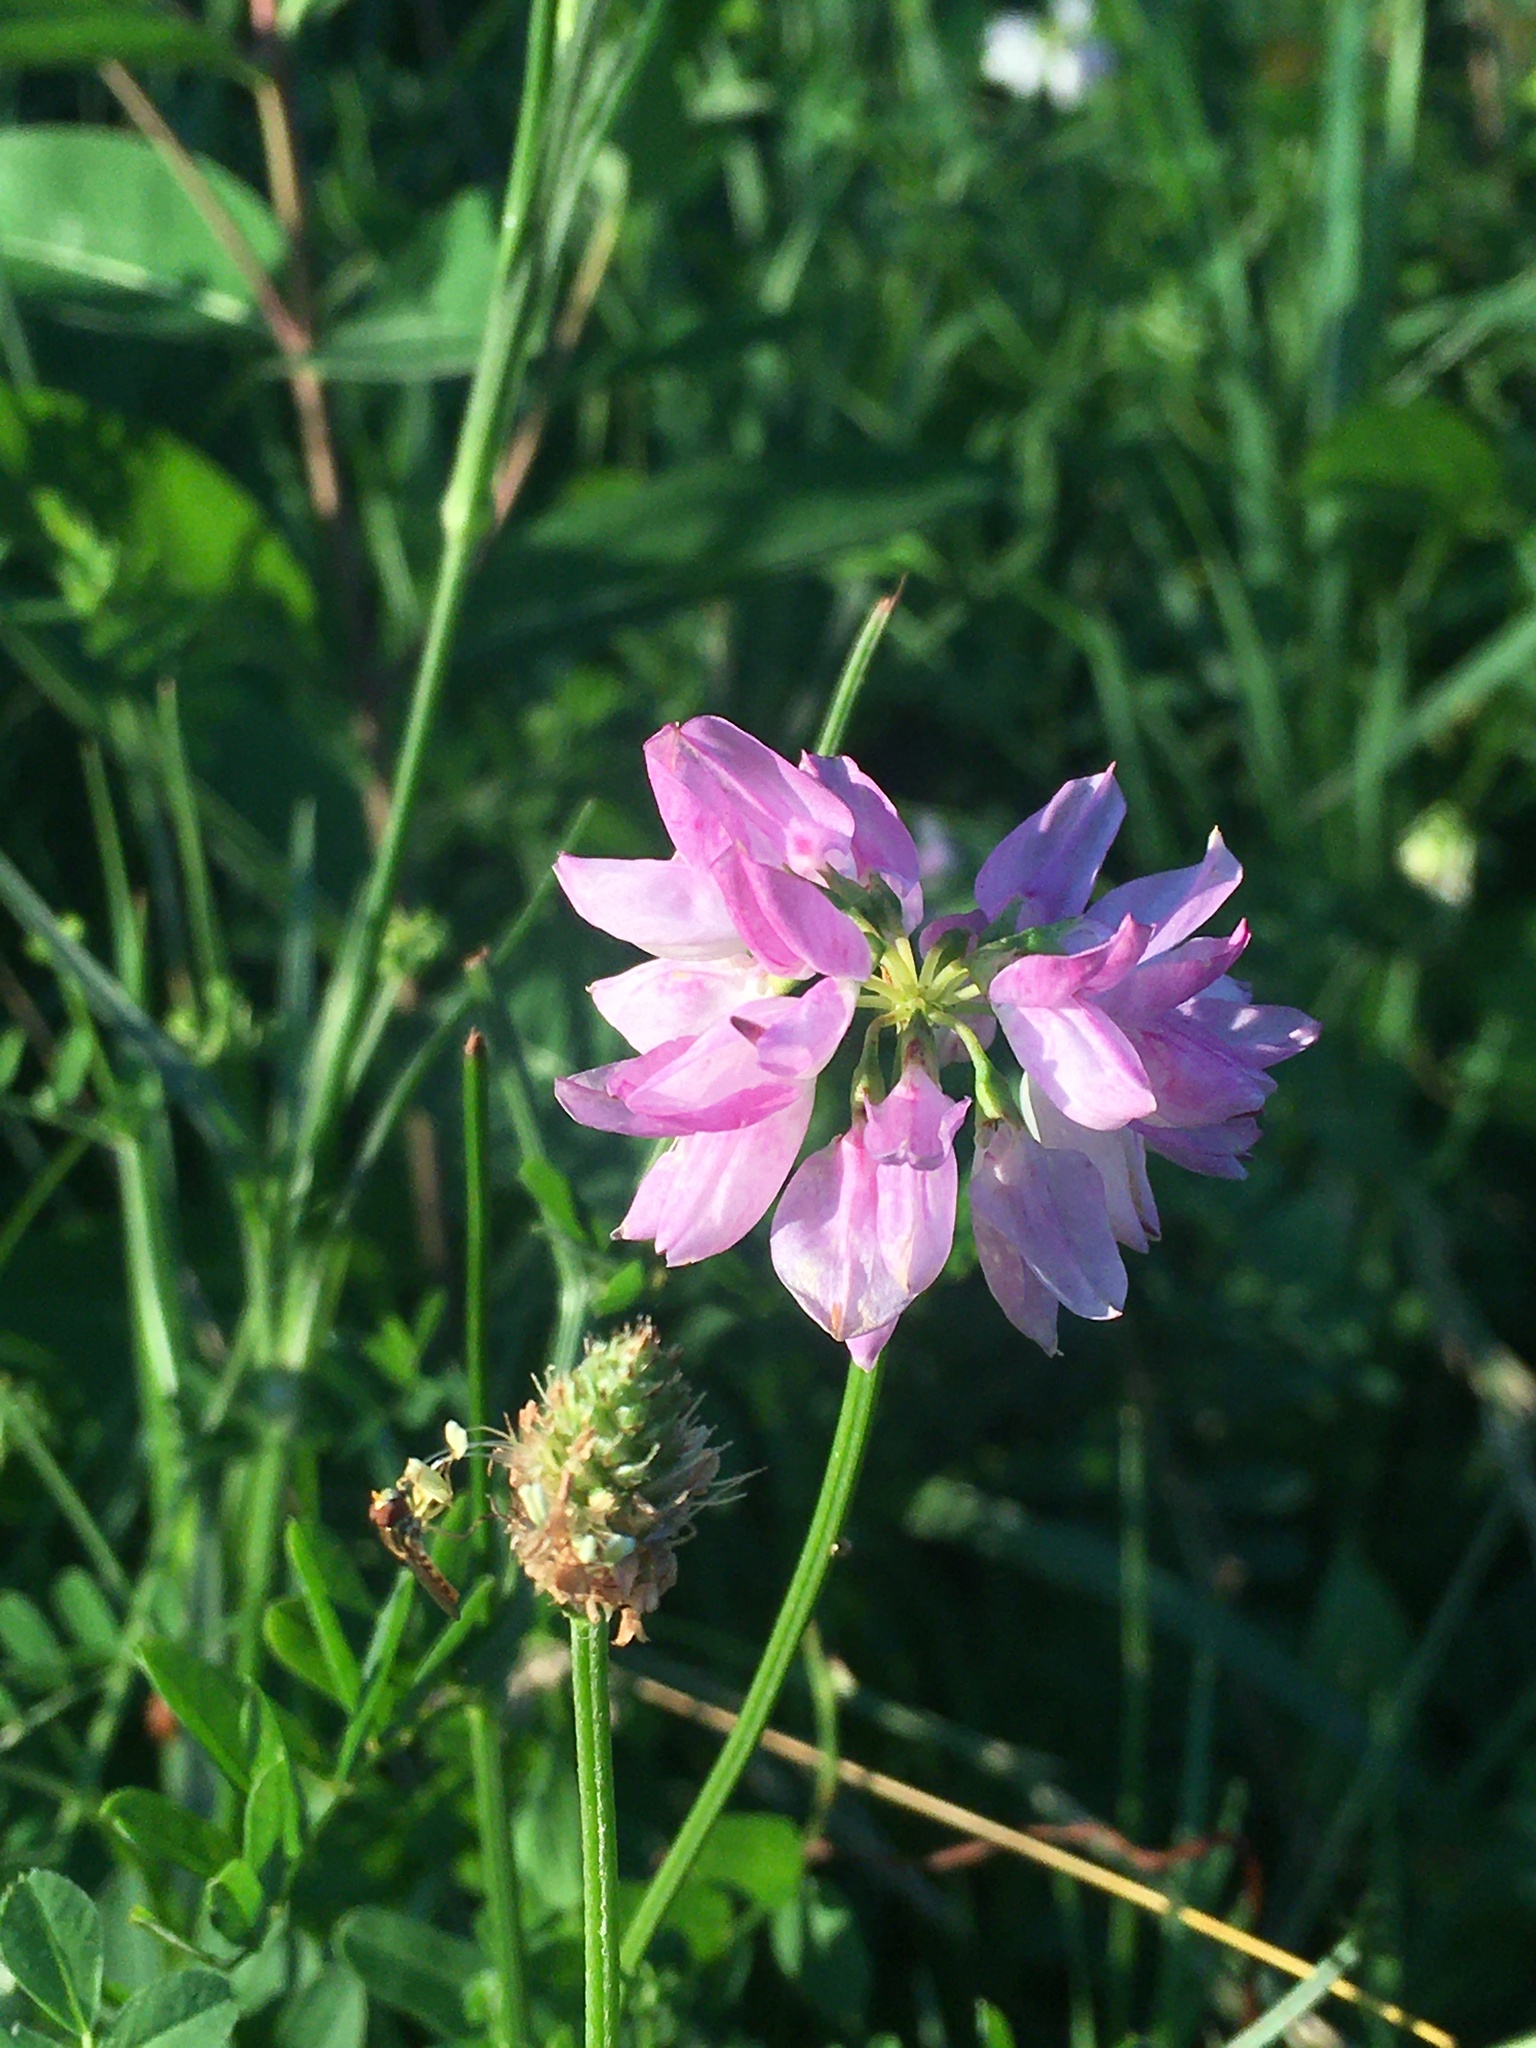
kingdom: Plantae
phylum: Tracheophyta
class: Magnoliopsida
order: Fabales
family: Fabaceae
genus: Coronilla
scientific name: Coronilla varia
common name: Crownvetch
